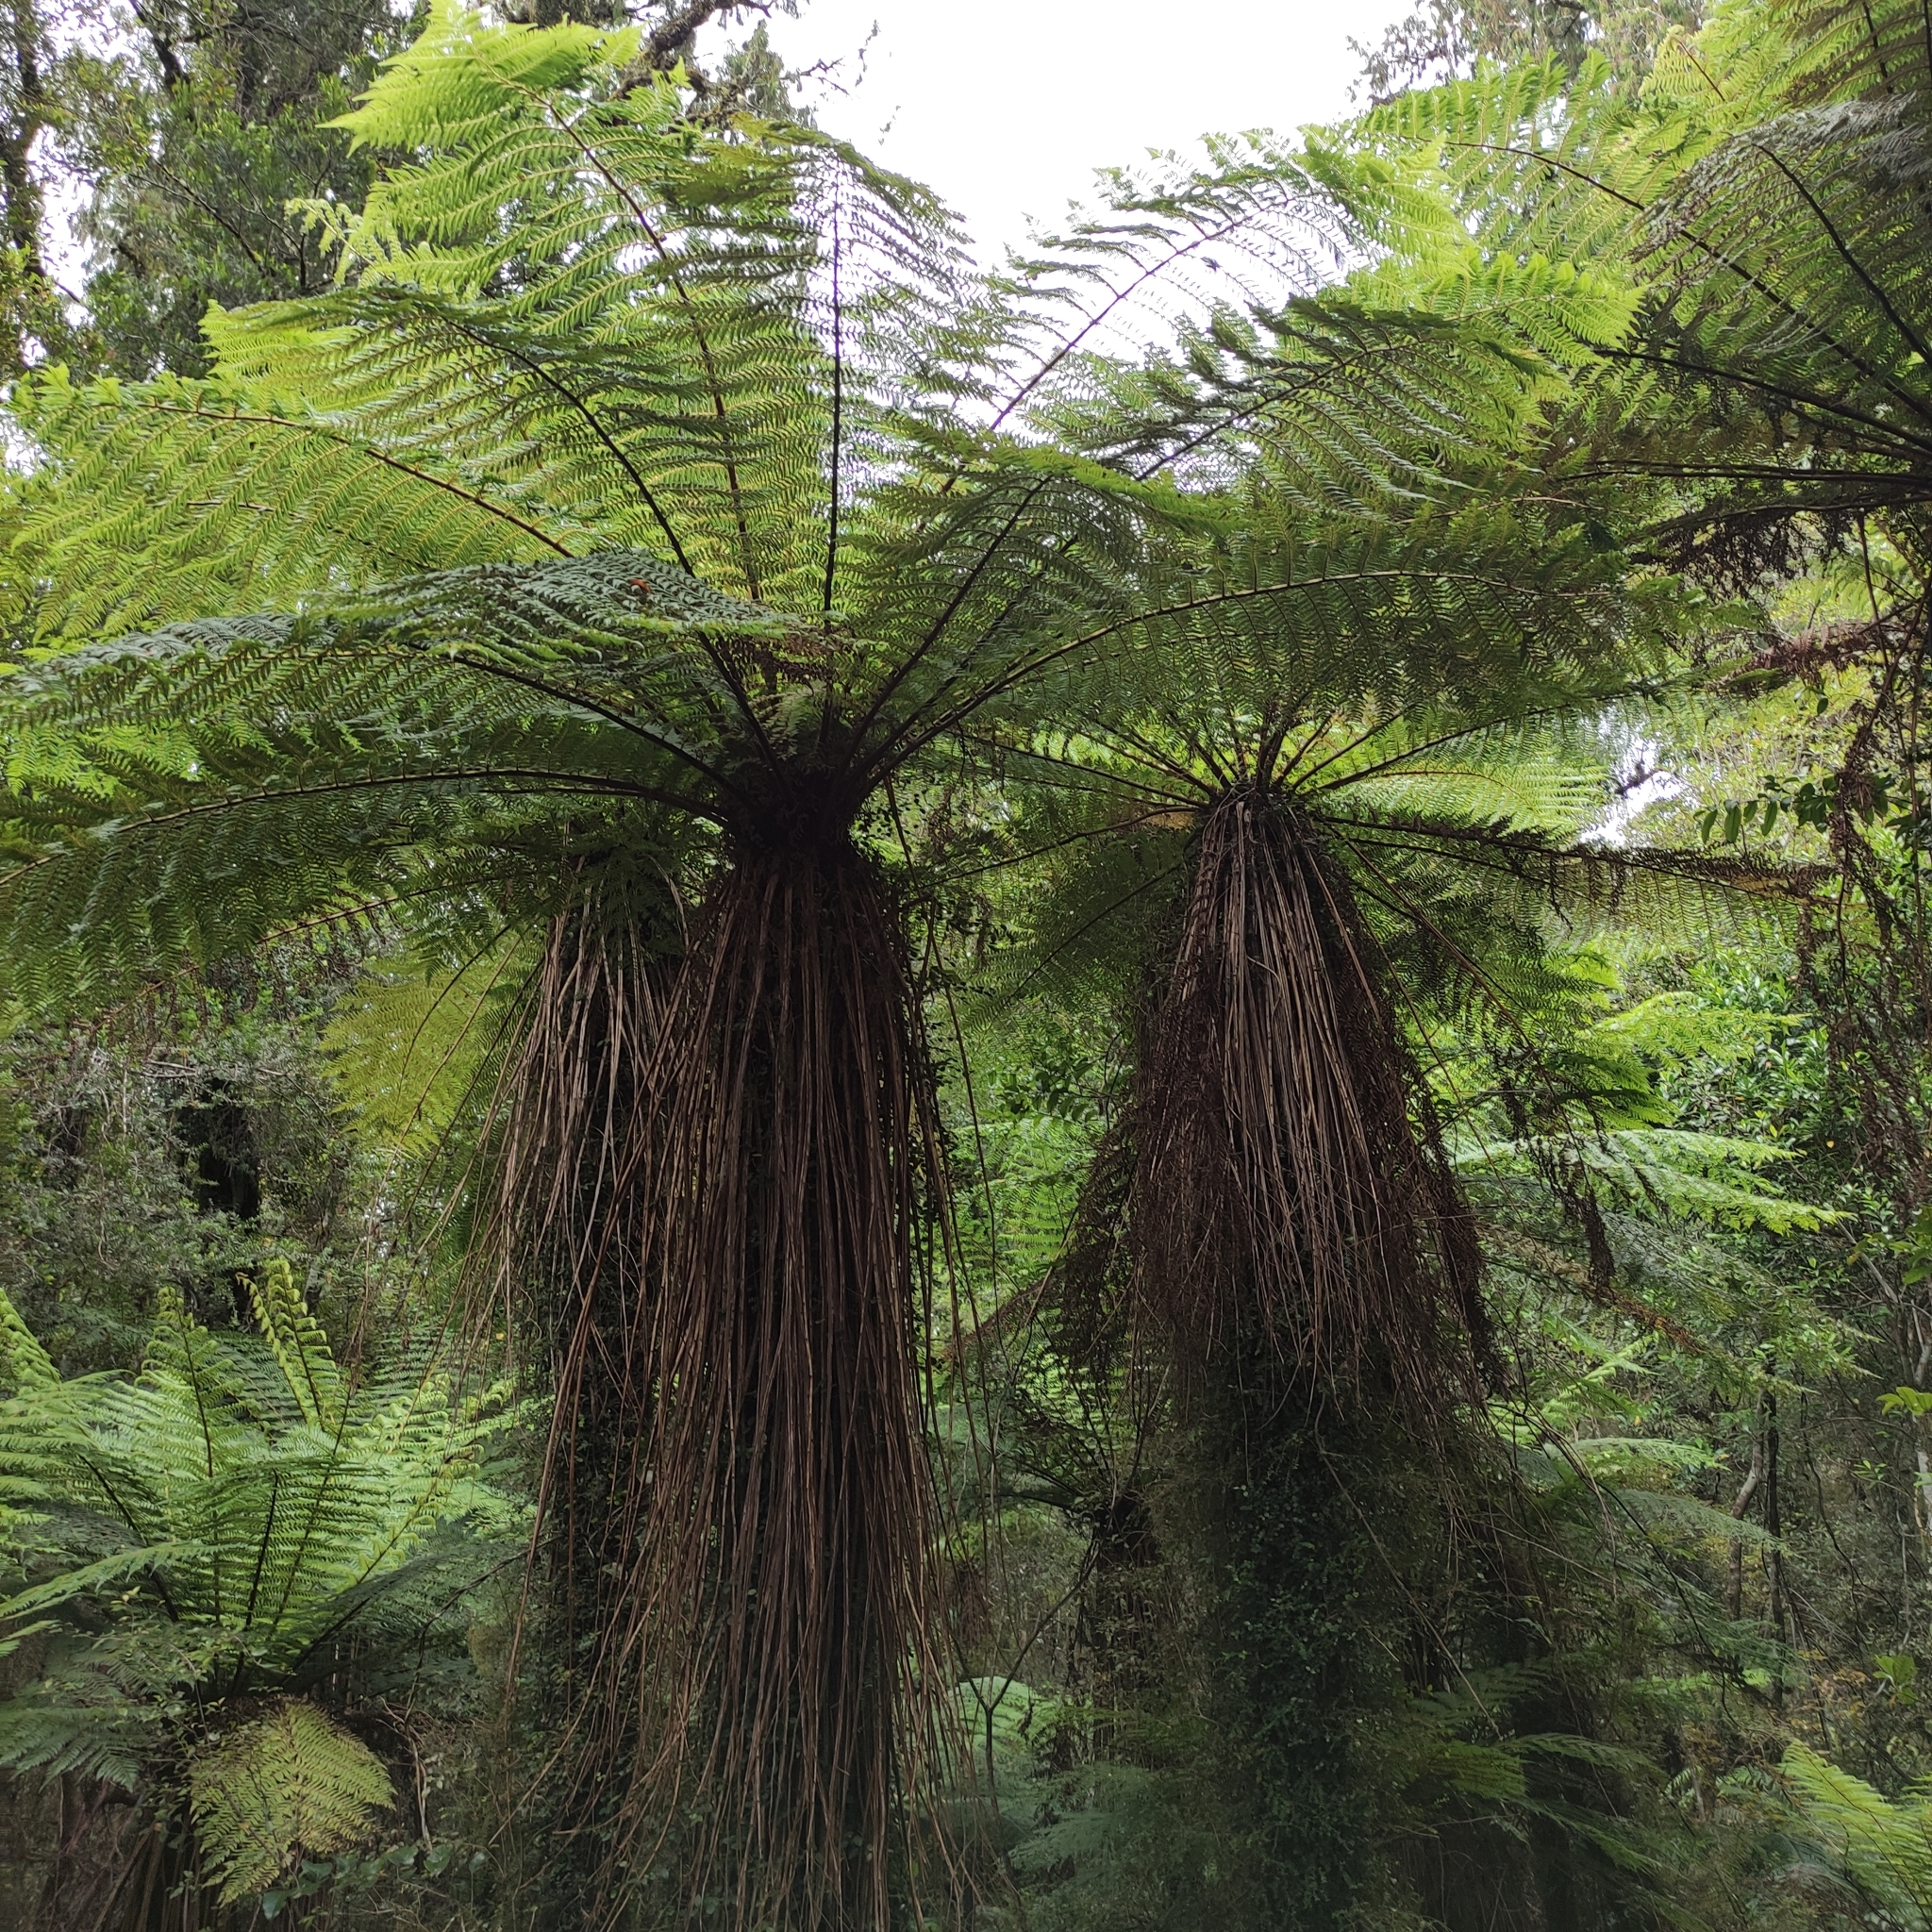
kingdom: Plantae
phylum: Tracheophyta
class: Polypodiopsida
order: Cyatheales
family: Cyatheaceae
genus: Alsophila
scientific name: Alsophila smithii
